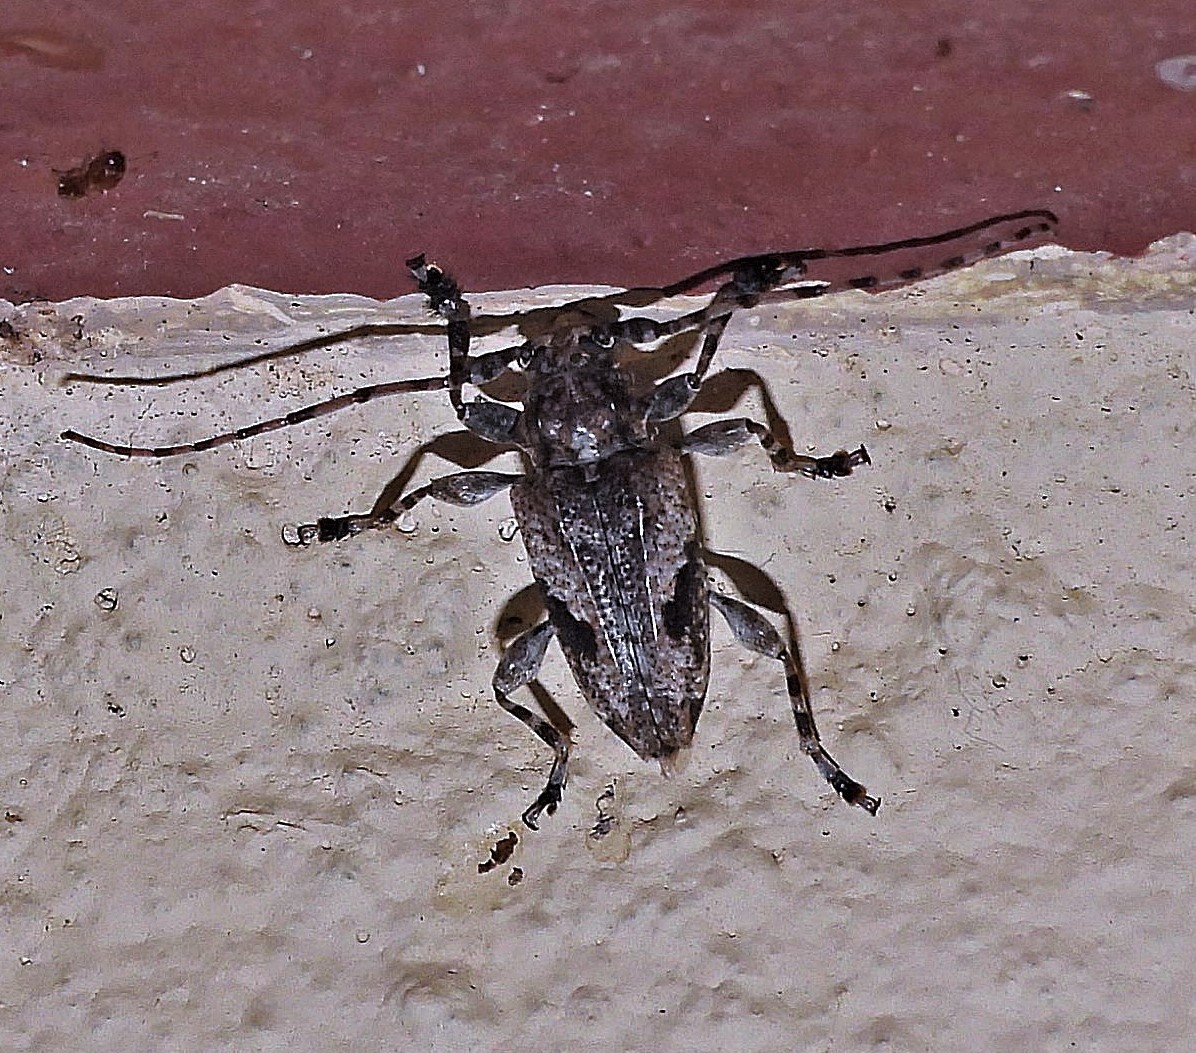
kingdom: Animalia
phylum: Arthropoda
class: Insecta
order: Coleoptera
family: Cerambycidae
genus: Psapharochrus
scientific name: Psapharochrus jaspideus
